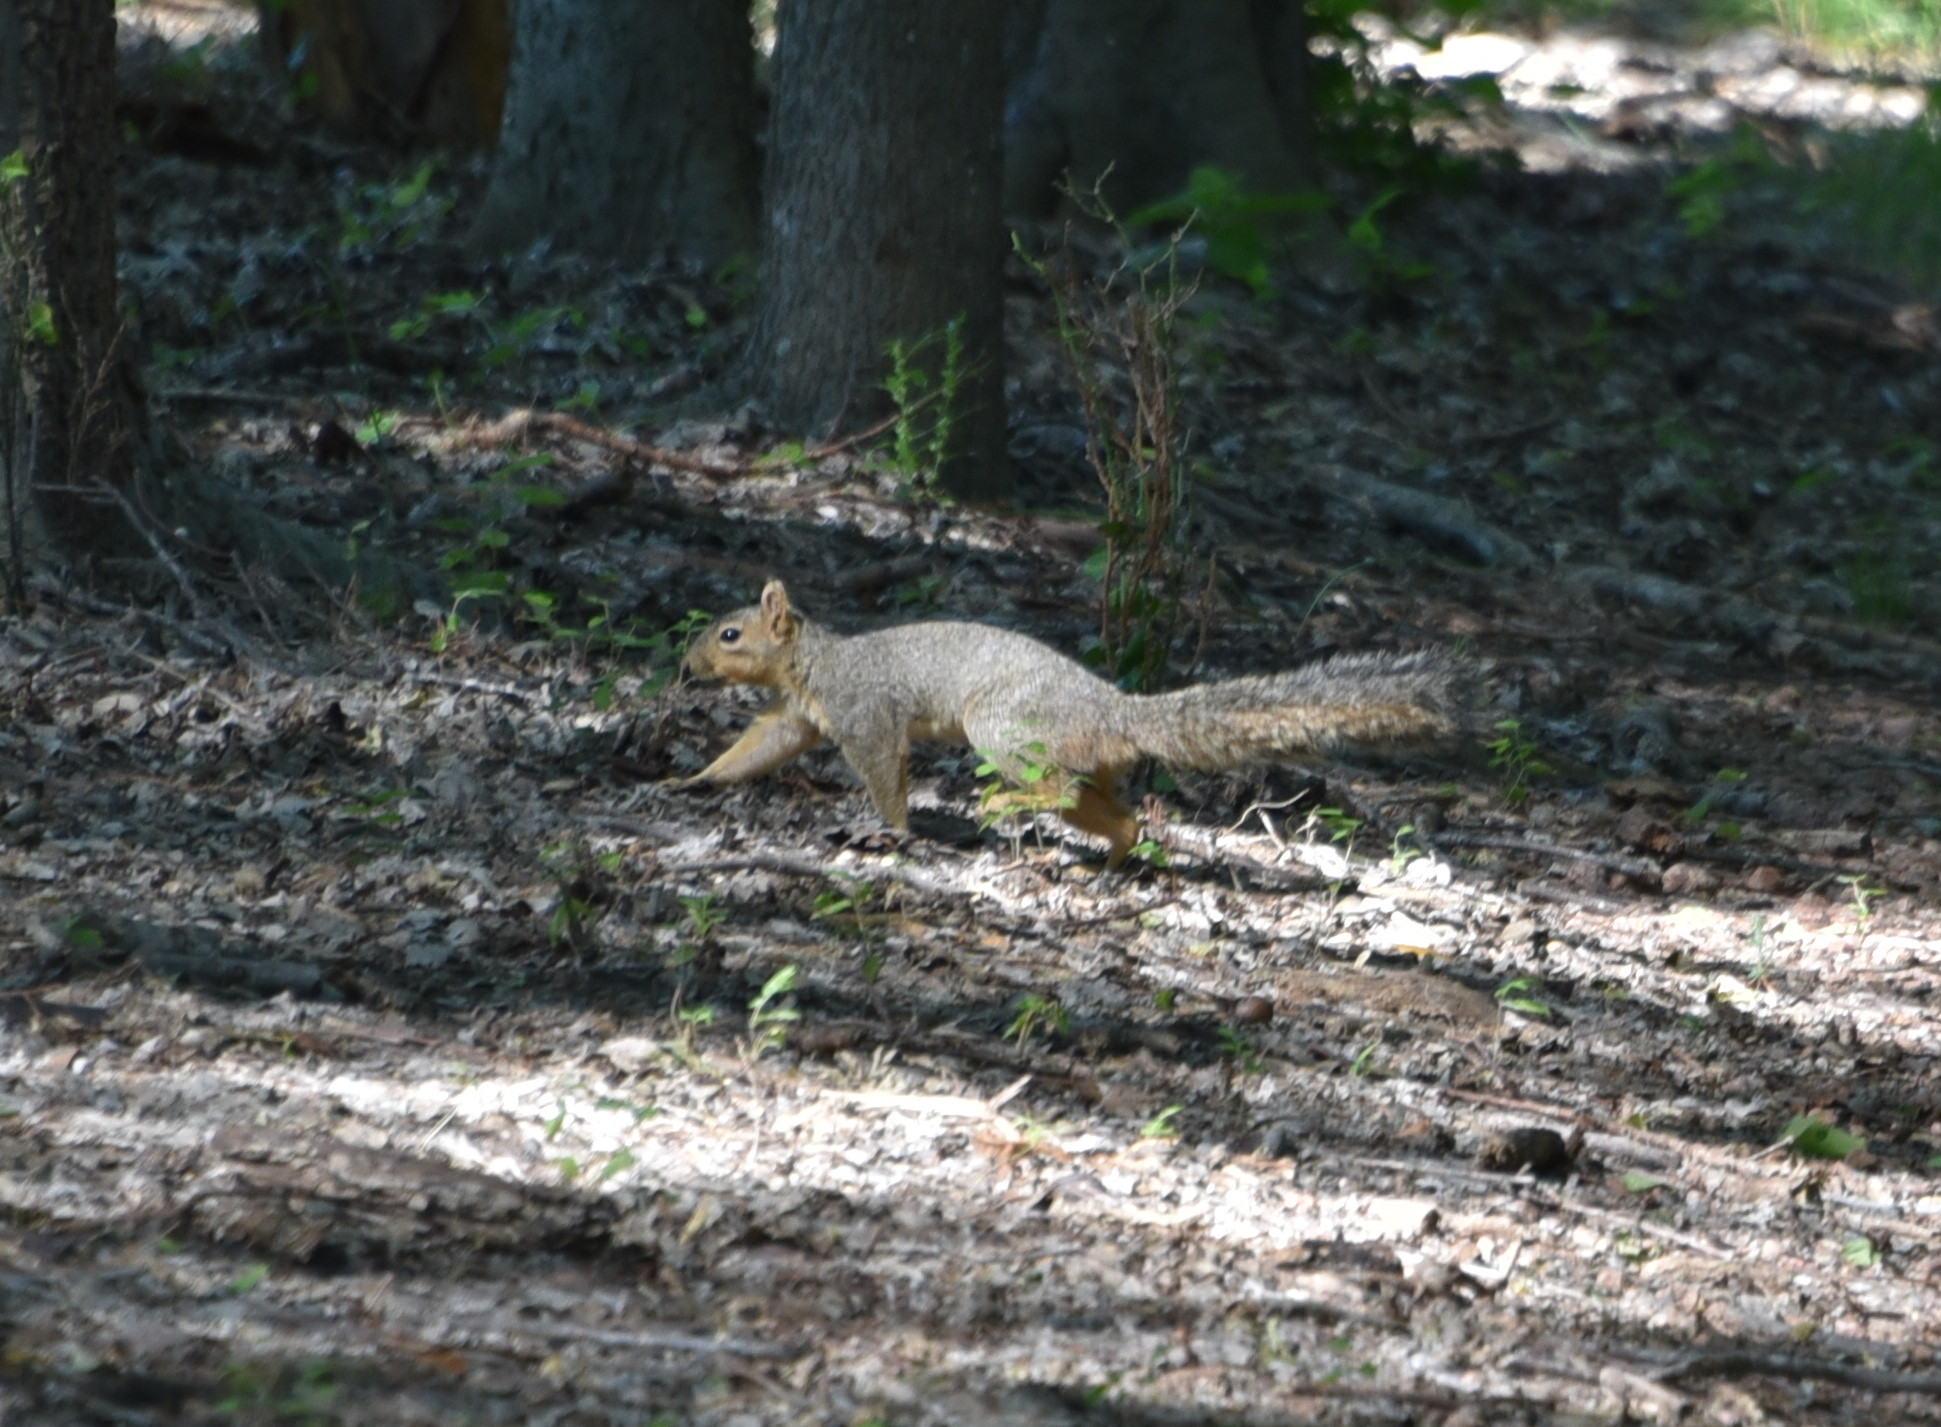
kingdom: Animalia
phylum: Chordata
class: Mammalia
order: Rodentia
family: Sciuridae
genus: Sciurus
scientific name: Sciurus niger
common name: Fox squirrel
